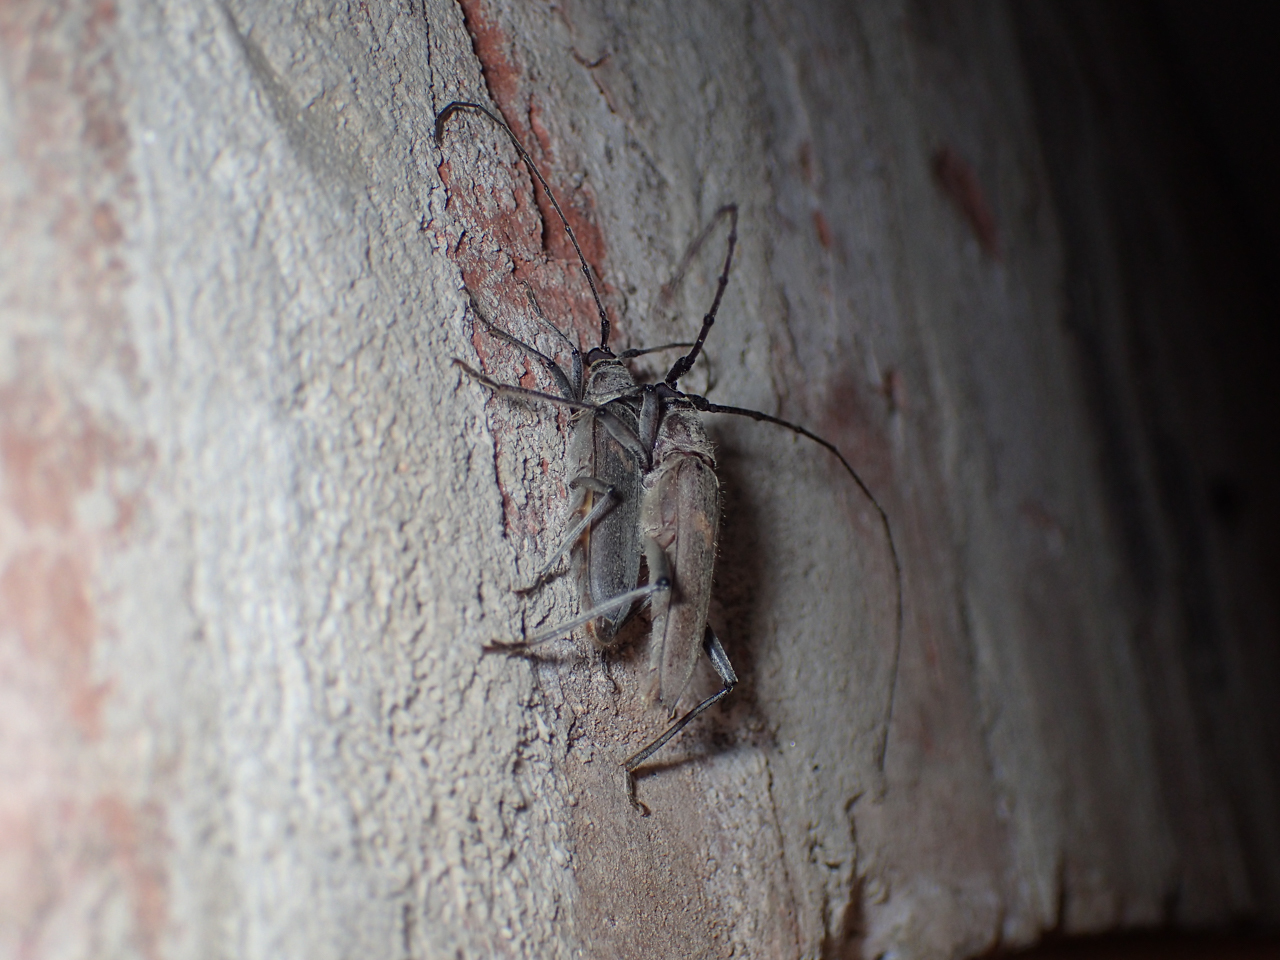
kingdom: Animalia
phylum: Arthropoda
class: Insecta
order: Coleoptera
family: Cerambycidae
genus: Knulliana
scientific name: Knulliana cincta
